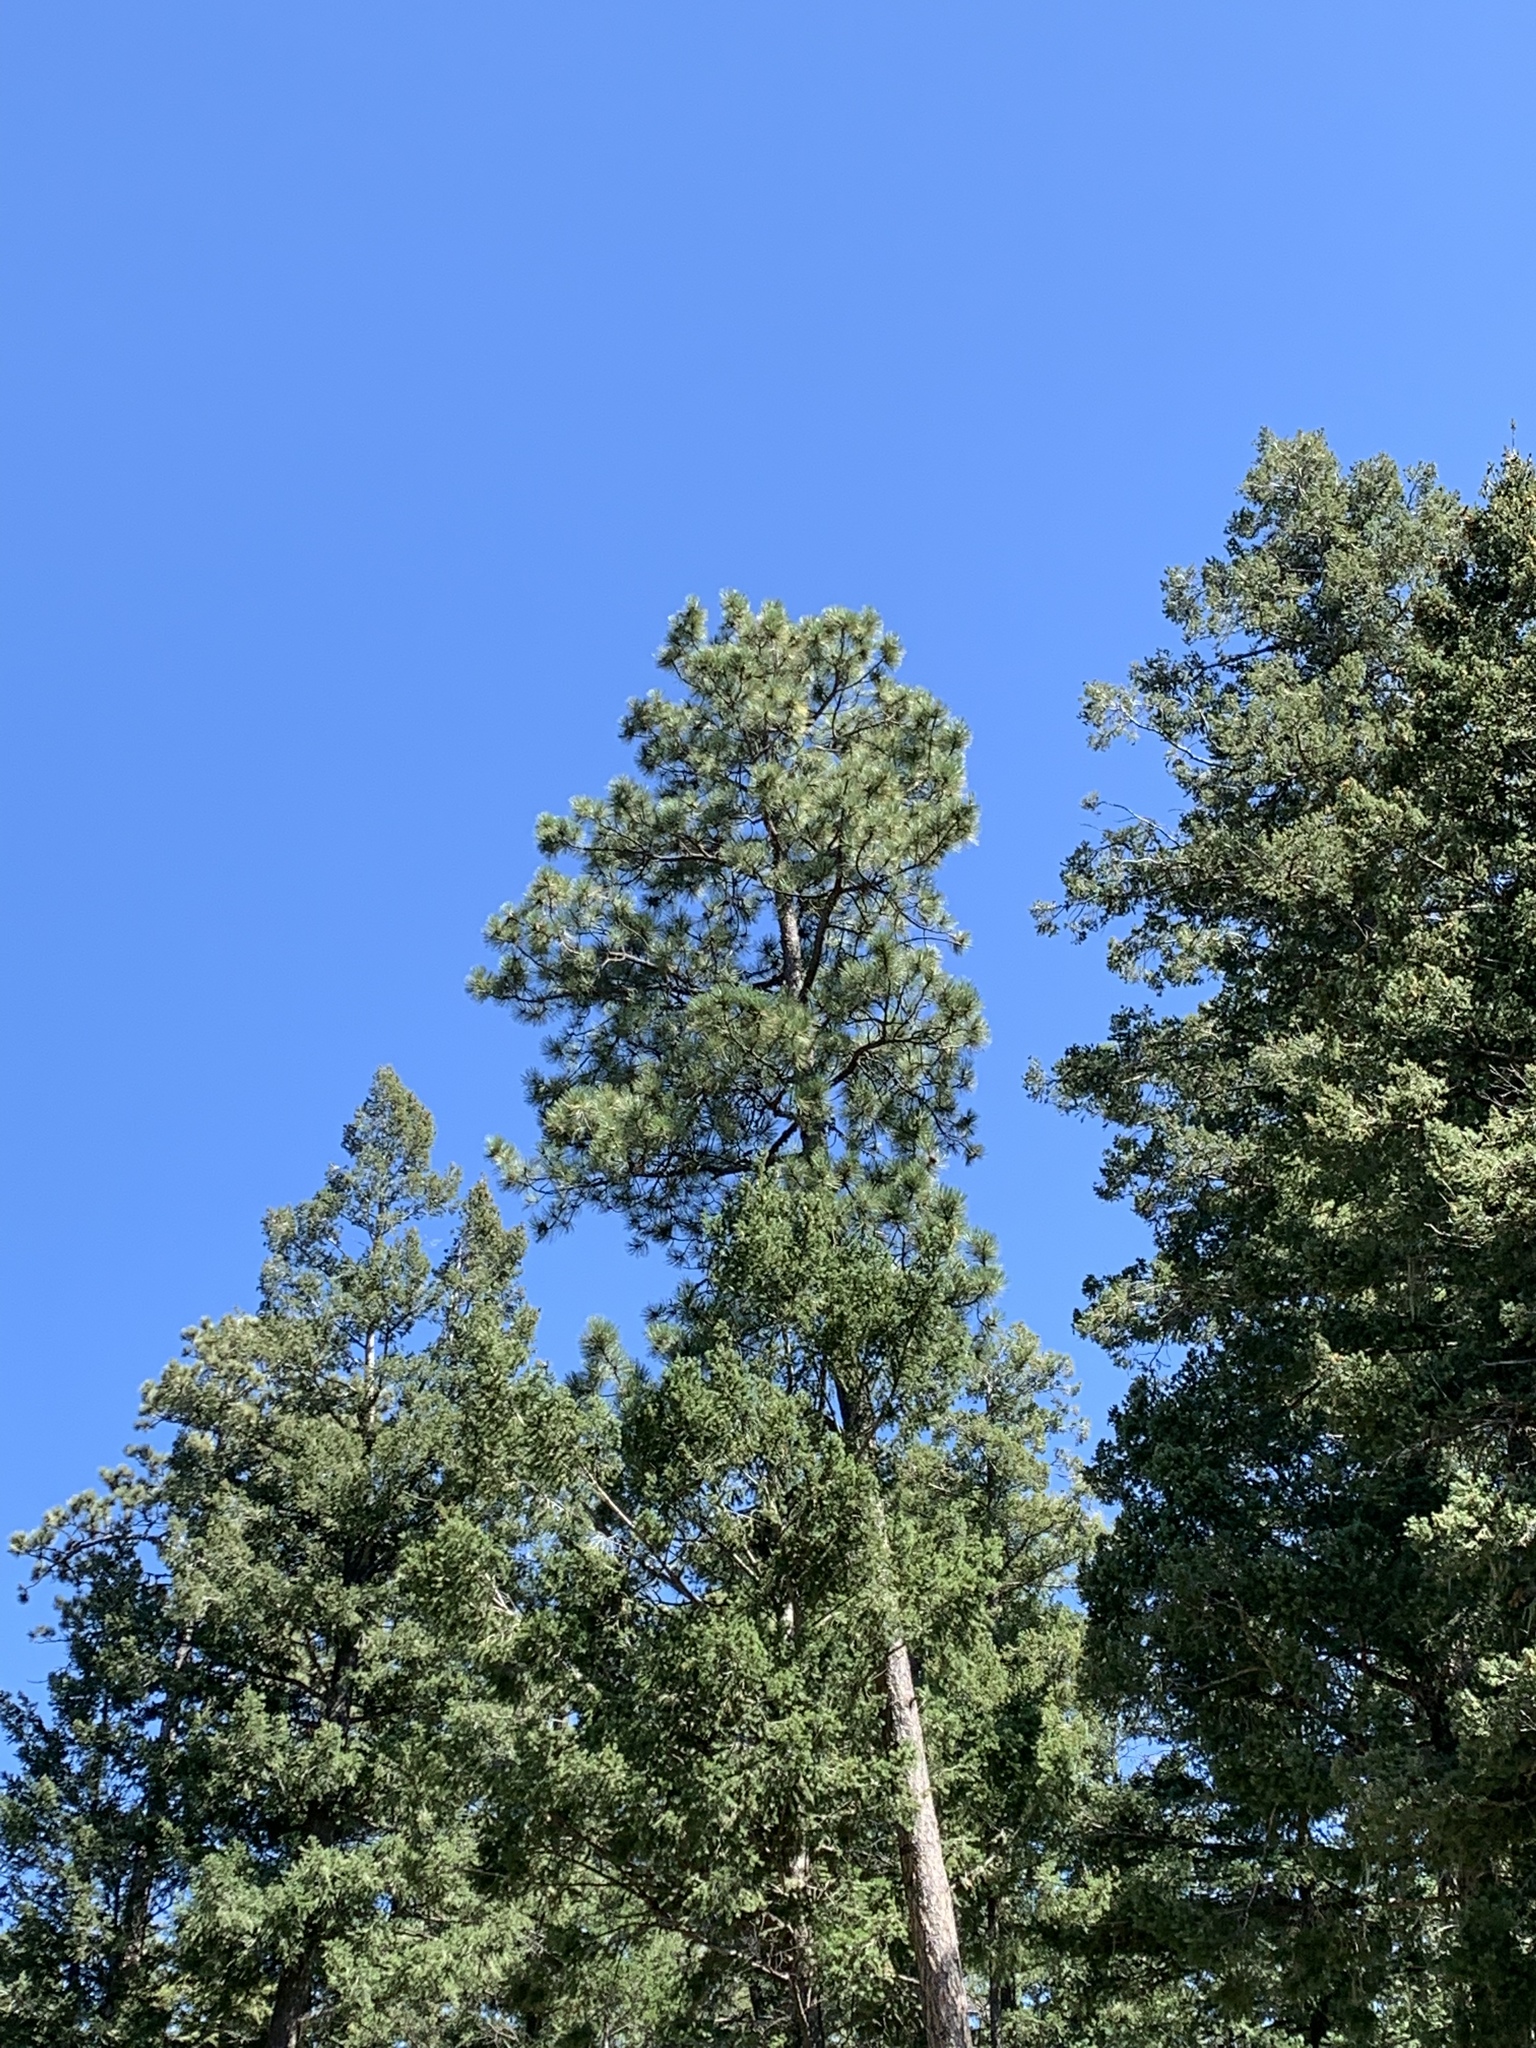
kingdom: Plantae
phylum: Tracheophyta
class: Pinopsida
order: Pinales
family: Pinaceae
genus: Pinus
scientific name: Pinus ponderosa
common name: Western yellow-pine
